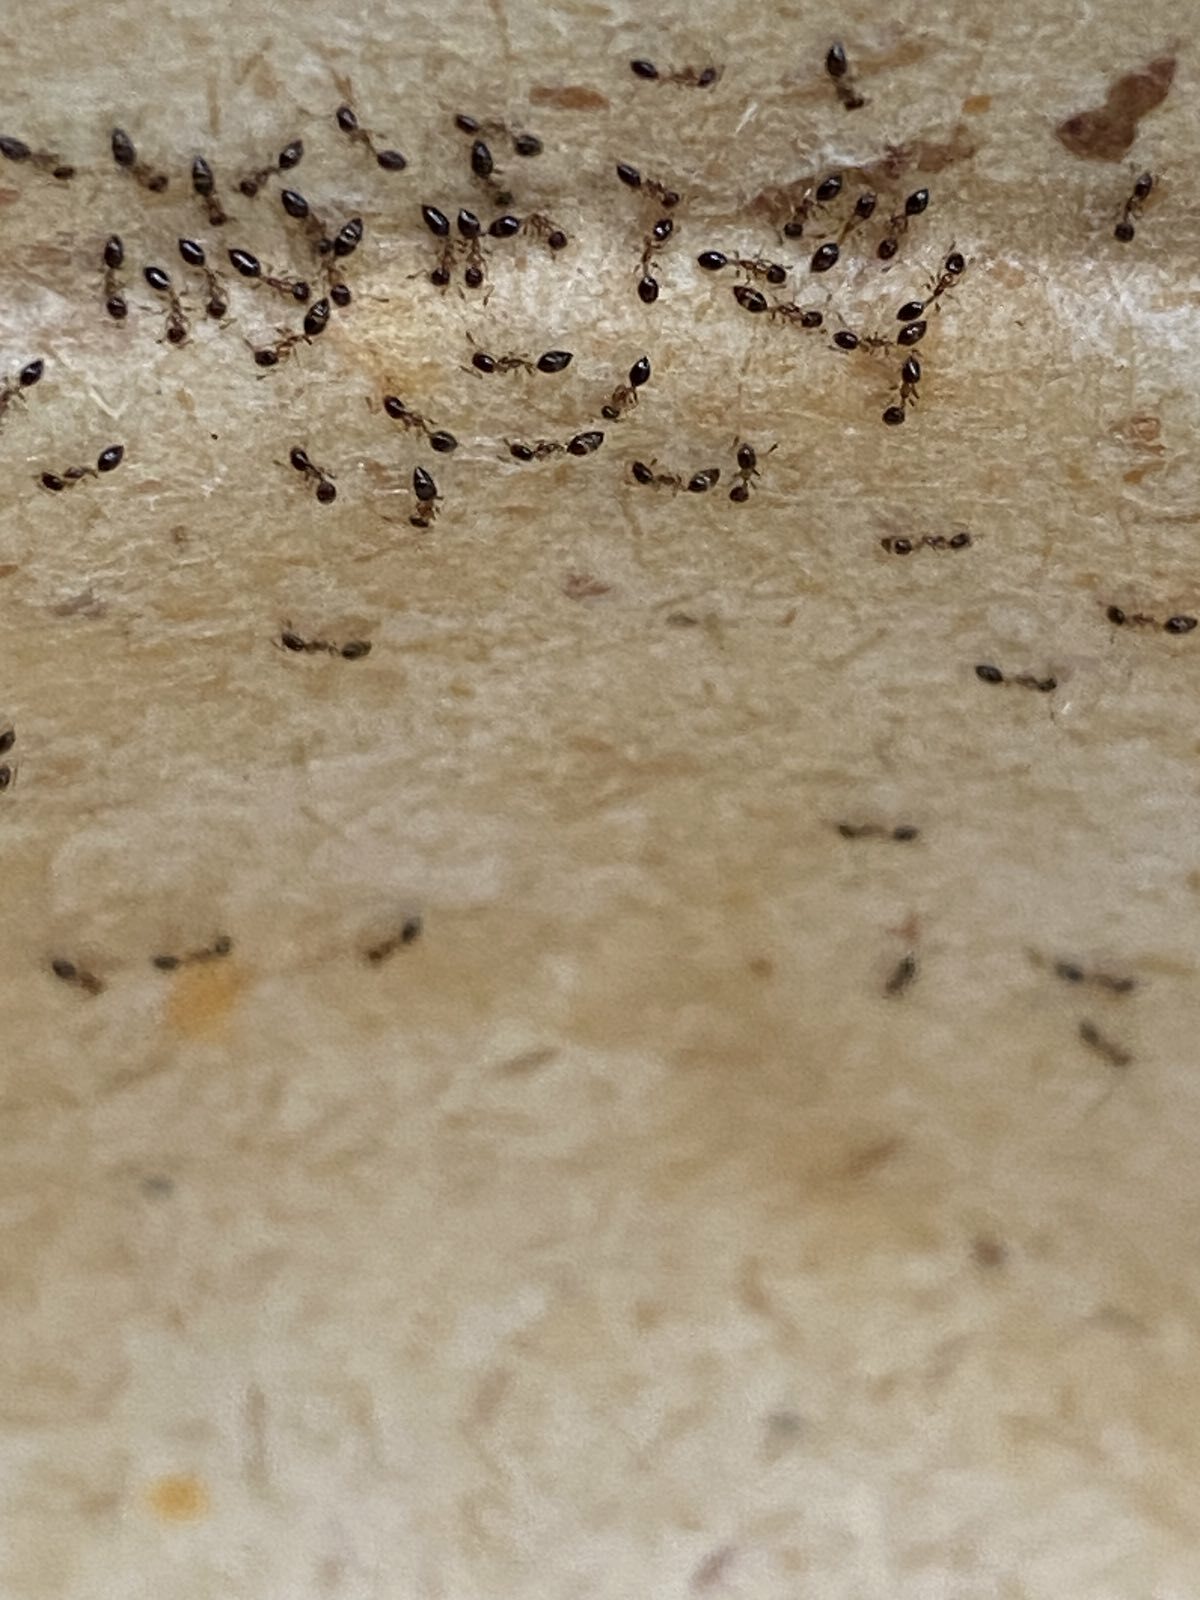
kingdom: Animalia
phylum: Arthropoda
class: Insecta
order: Hymenoptera
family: Formicidae
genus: Monomorium
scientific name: Monomorium floricola
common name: Bicolored trailing ant
